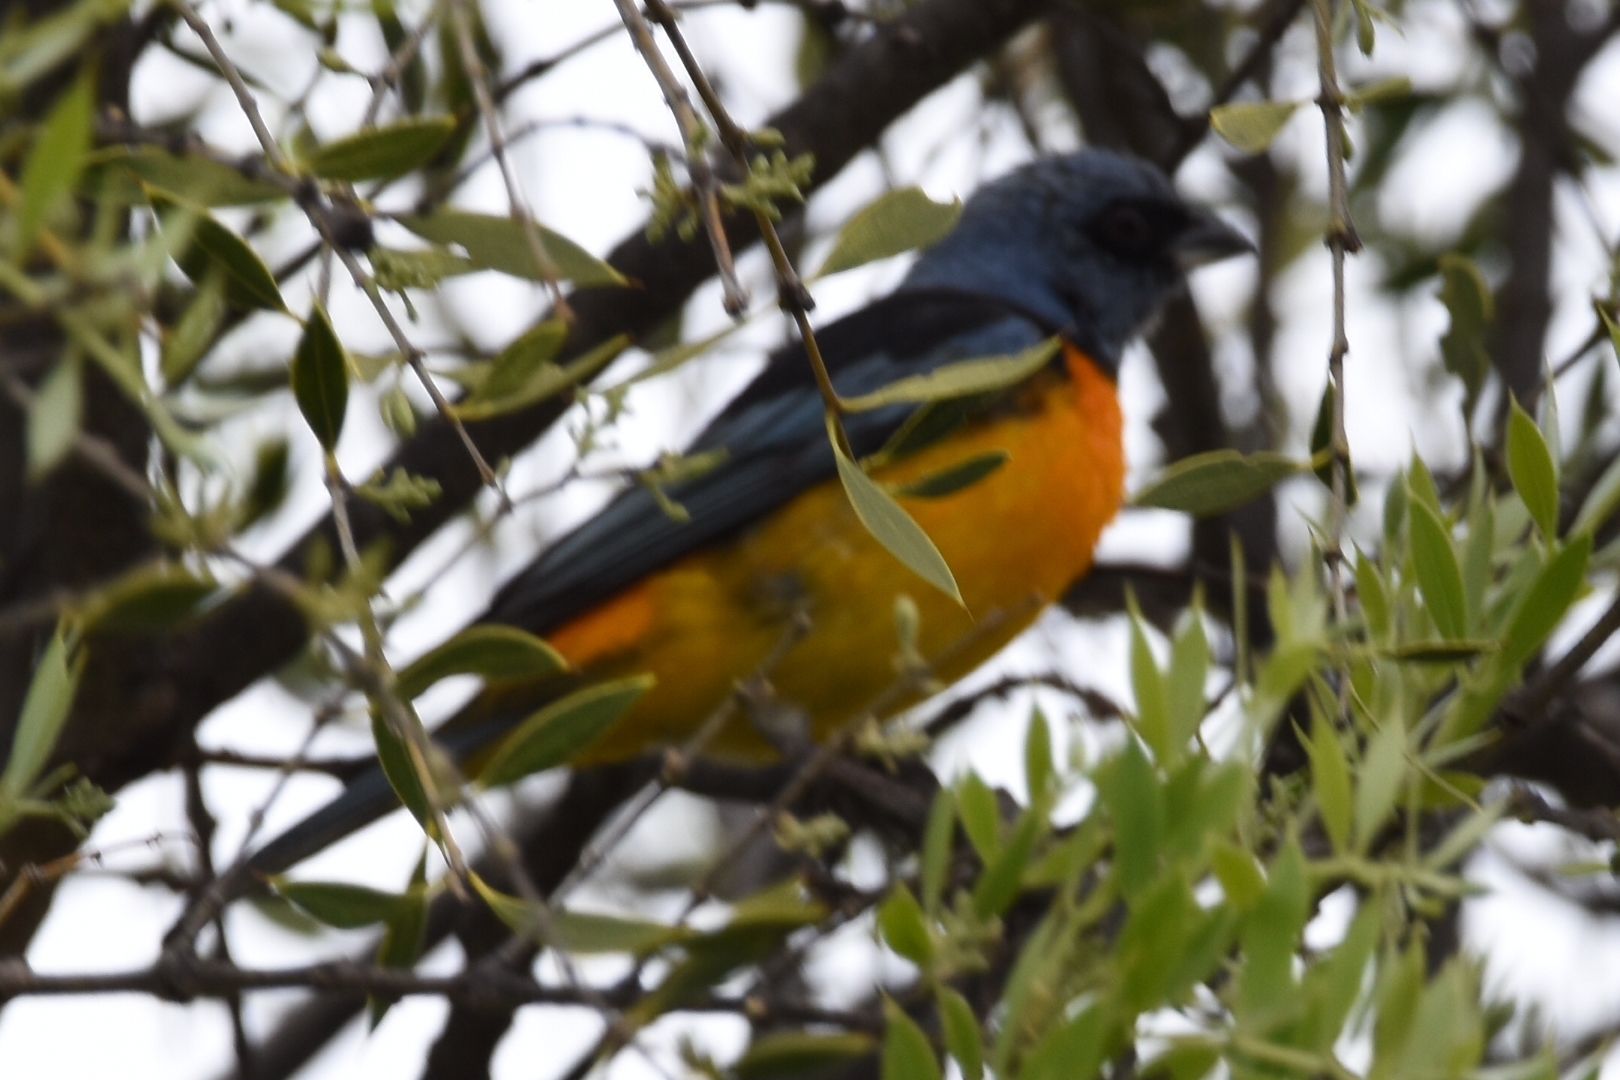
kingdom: Animalia
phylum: Chordata
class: Aves
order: Passeriformes
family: Thraupidae
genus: Rauenia
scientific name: Rauenia bonariensis
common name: Blue-and-yellow tanager
